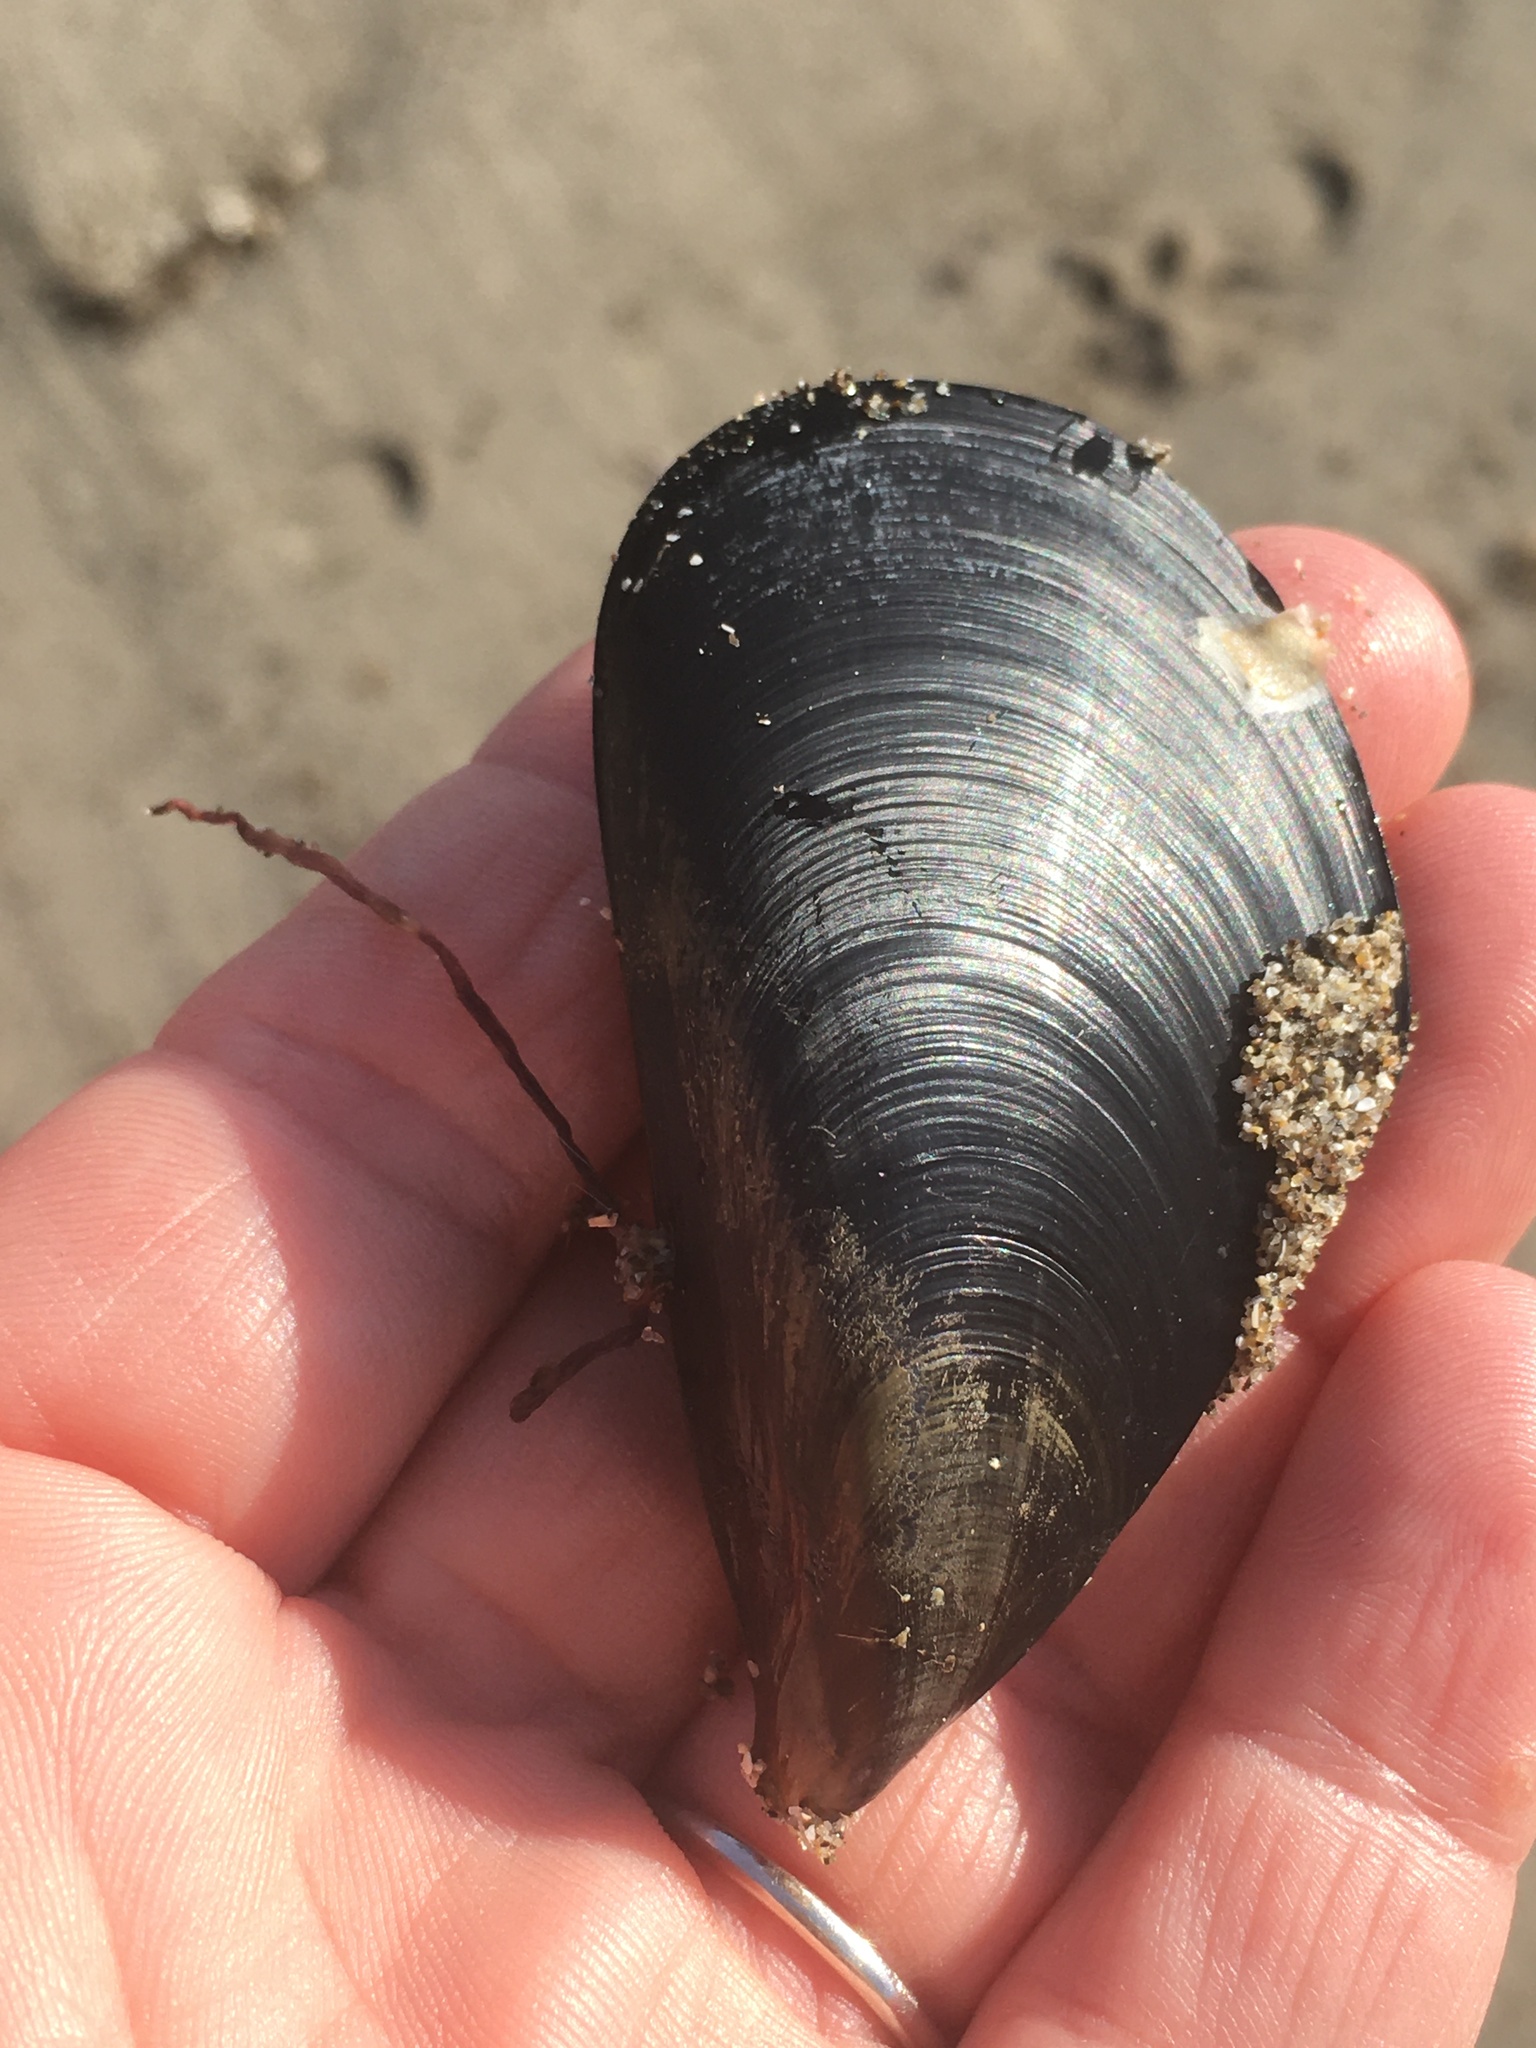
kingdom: Animalia
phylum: Mollusca
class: Bivalvia
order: Mytilida
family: Mytilidae
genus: Mytilus
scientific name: Mytilus
